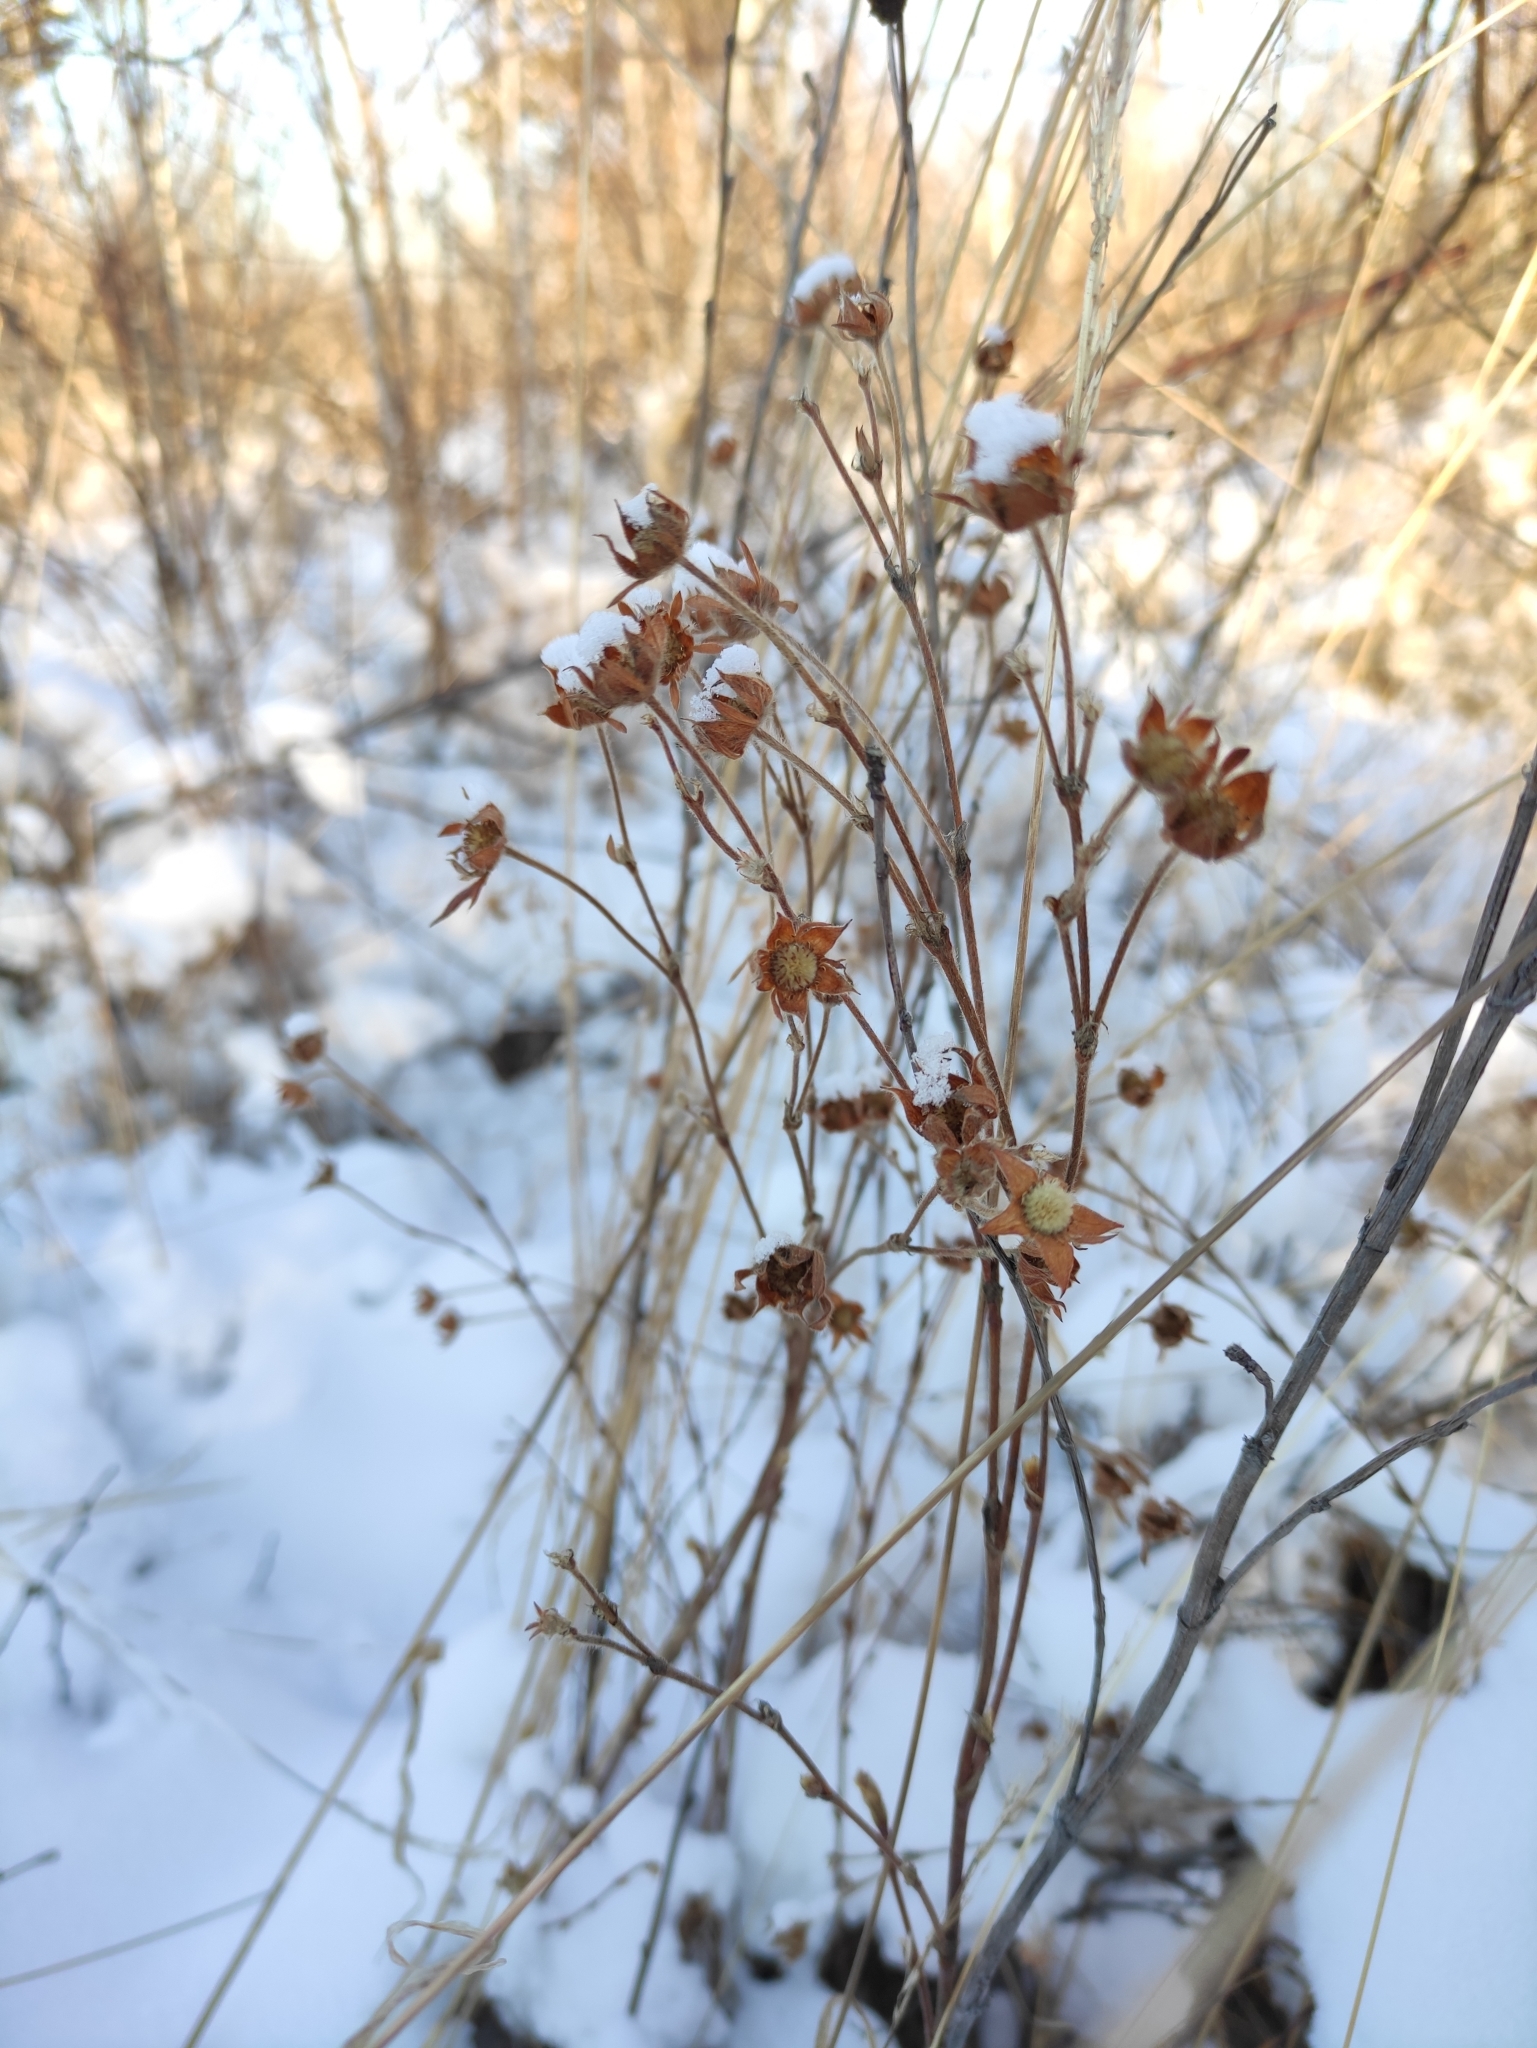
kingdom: Plantae
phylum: Tracheophyta
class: Magnoliopsida
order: Rosales
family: Rosaceae
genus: Dasiphora
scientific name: Dasiphora fruticosa
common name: Shrubby cinquefoil
